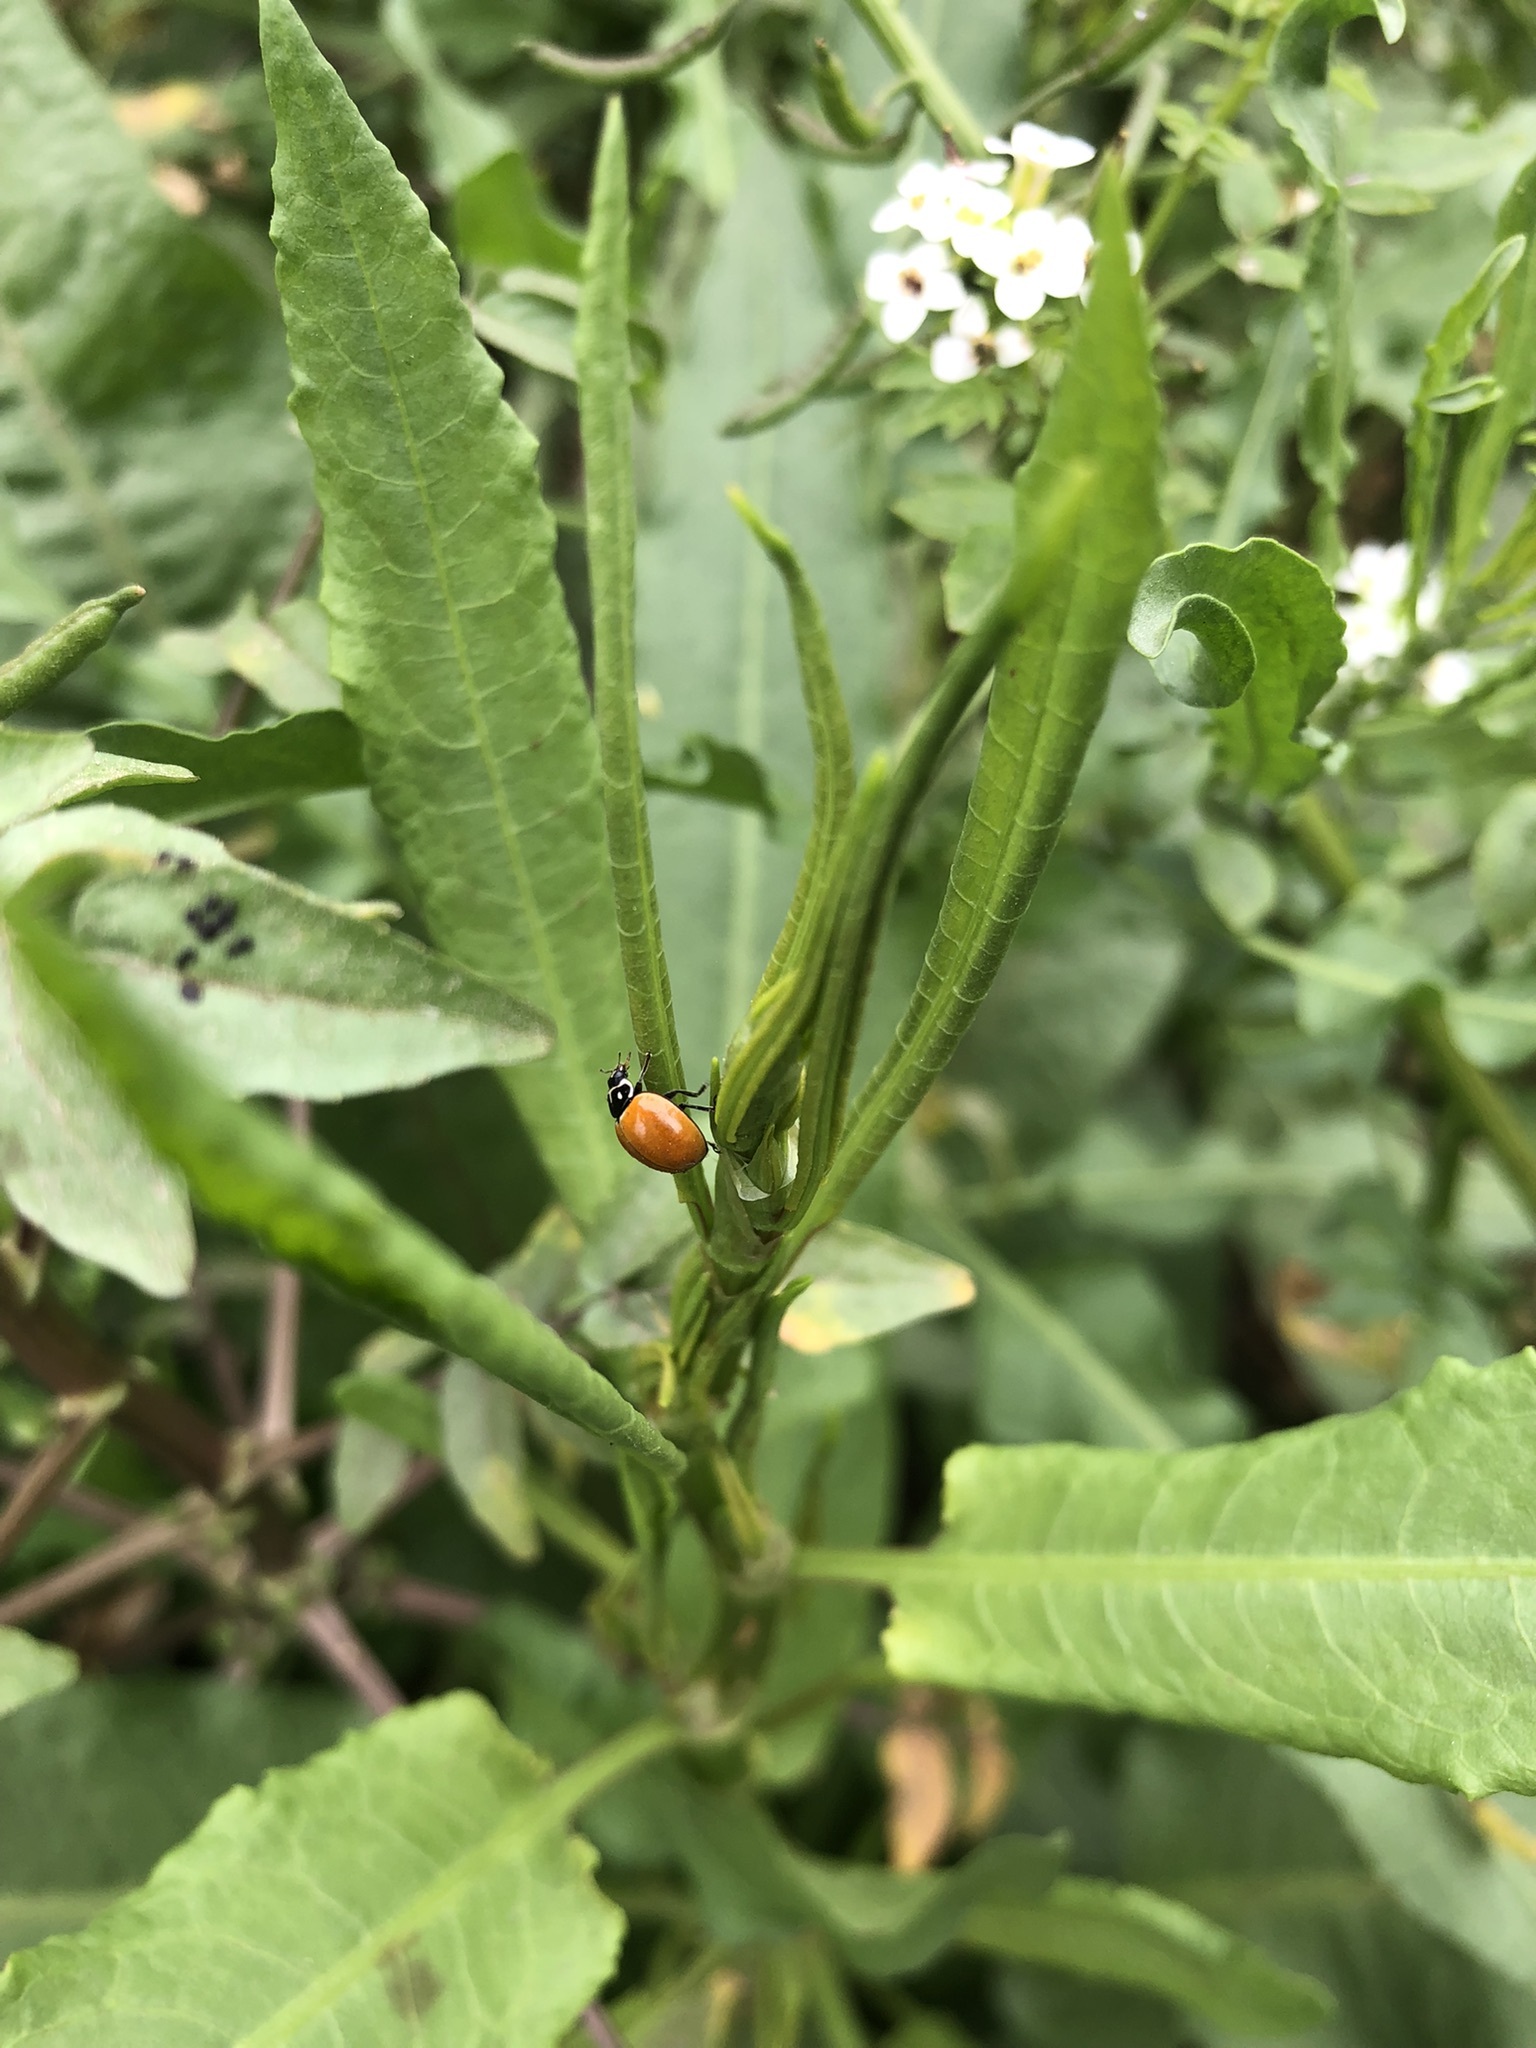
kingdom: Animalia
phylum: Arthropoda
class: Insecta
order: Coleoptera
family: Coccinellidae
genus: Cycloneda
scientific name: Cycloneda sanguinea
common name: Ladybird beetle
